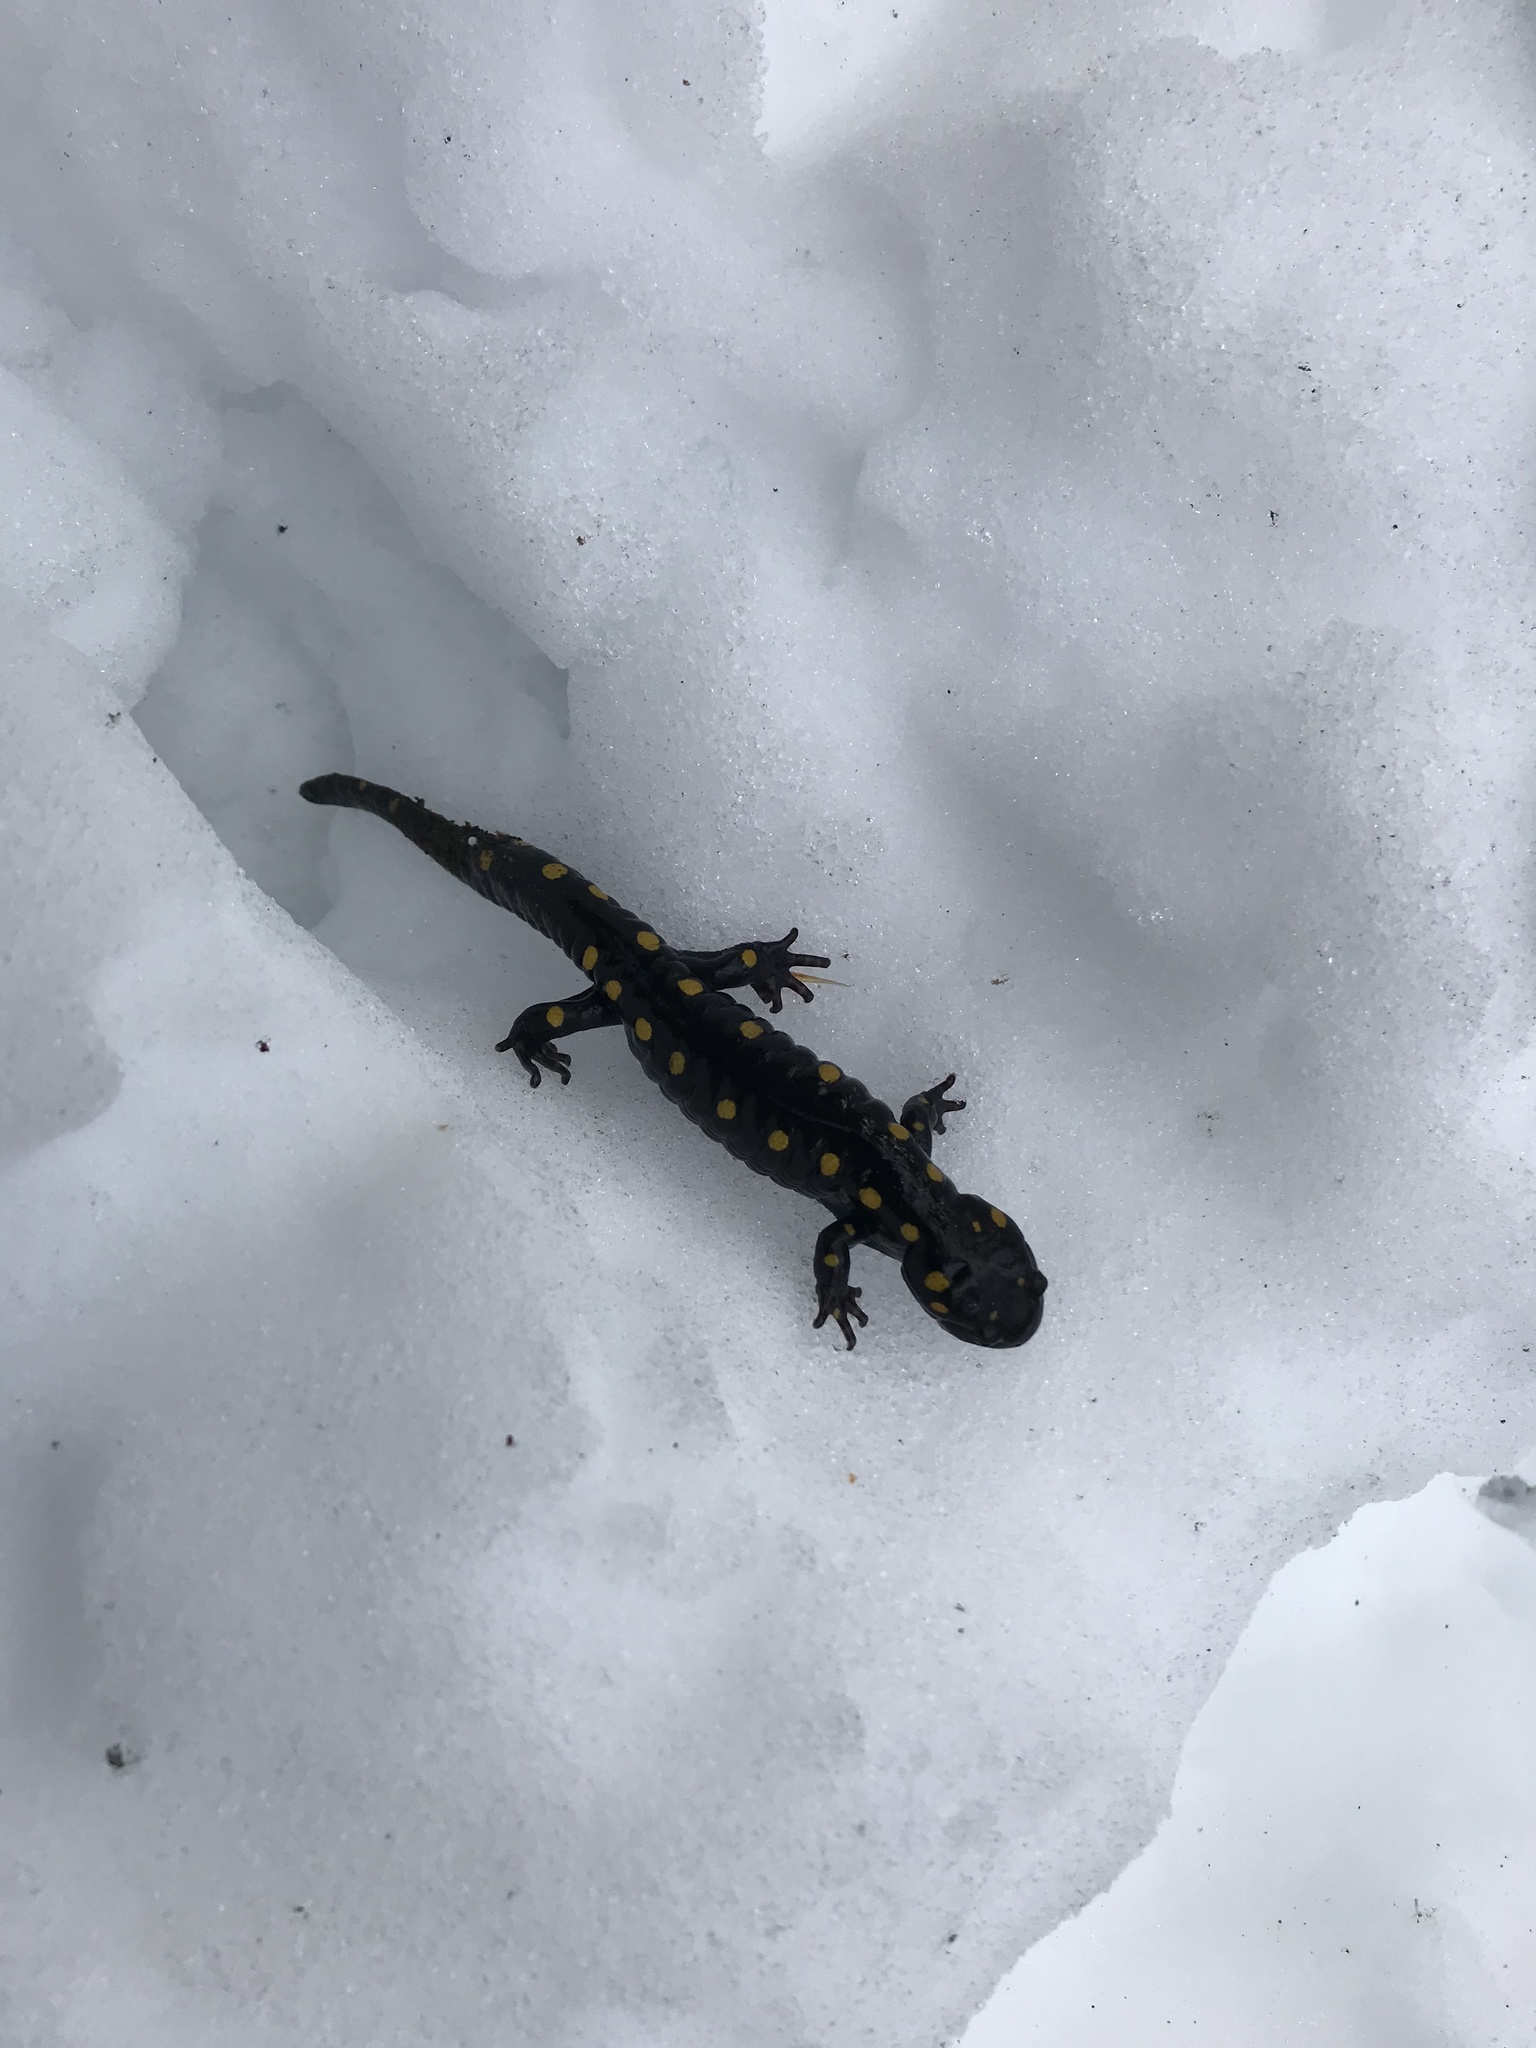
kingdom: Animalia
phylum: Chordata
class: Amphibia
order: Caudata
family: Ambystomatidae
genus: Ambystoma
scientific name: Ambystoma maculatum
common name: Spotted salamander
